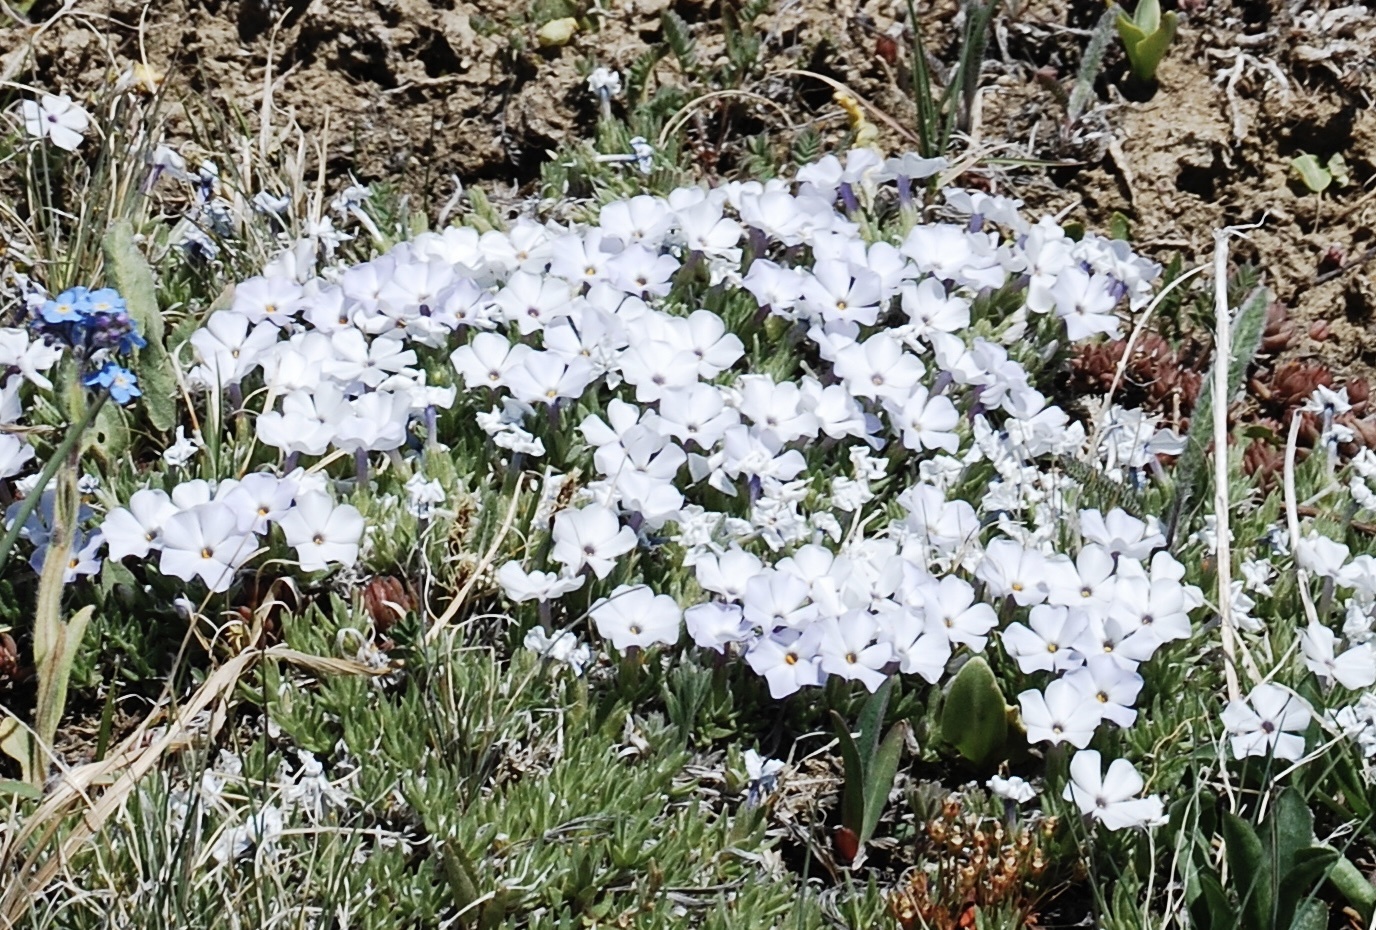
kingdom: Plantae
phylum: Tracheophyta
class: Magnoliopsida
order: Ericales
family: Polemoniaceae
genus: Phlox
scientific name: Phlox multiflora
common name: Rocky mountain phlox
